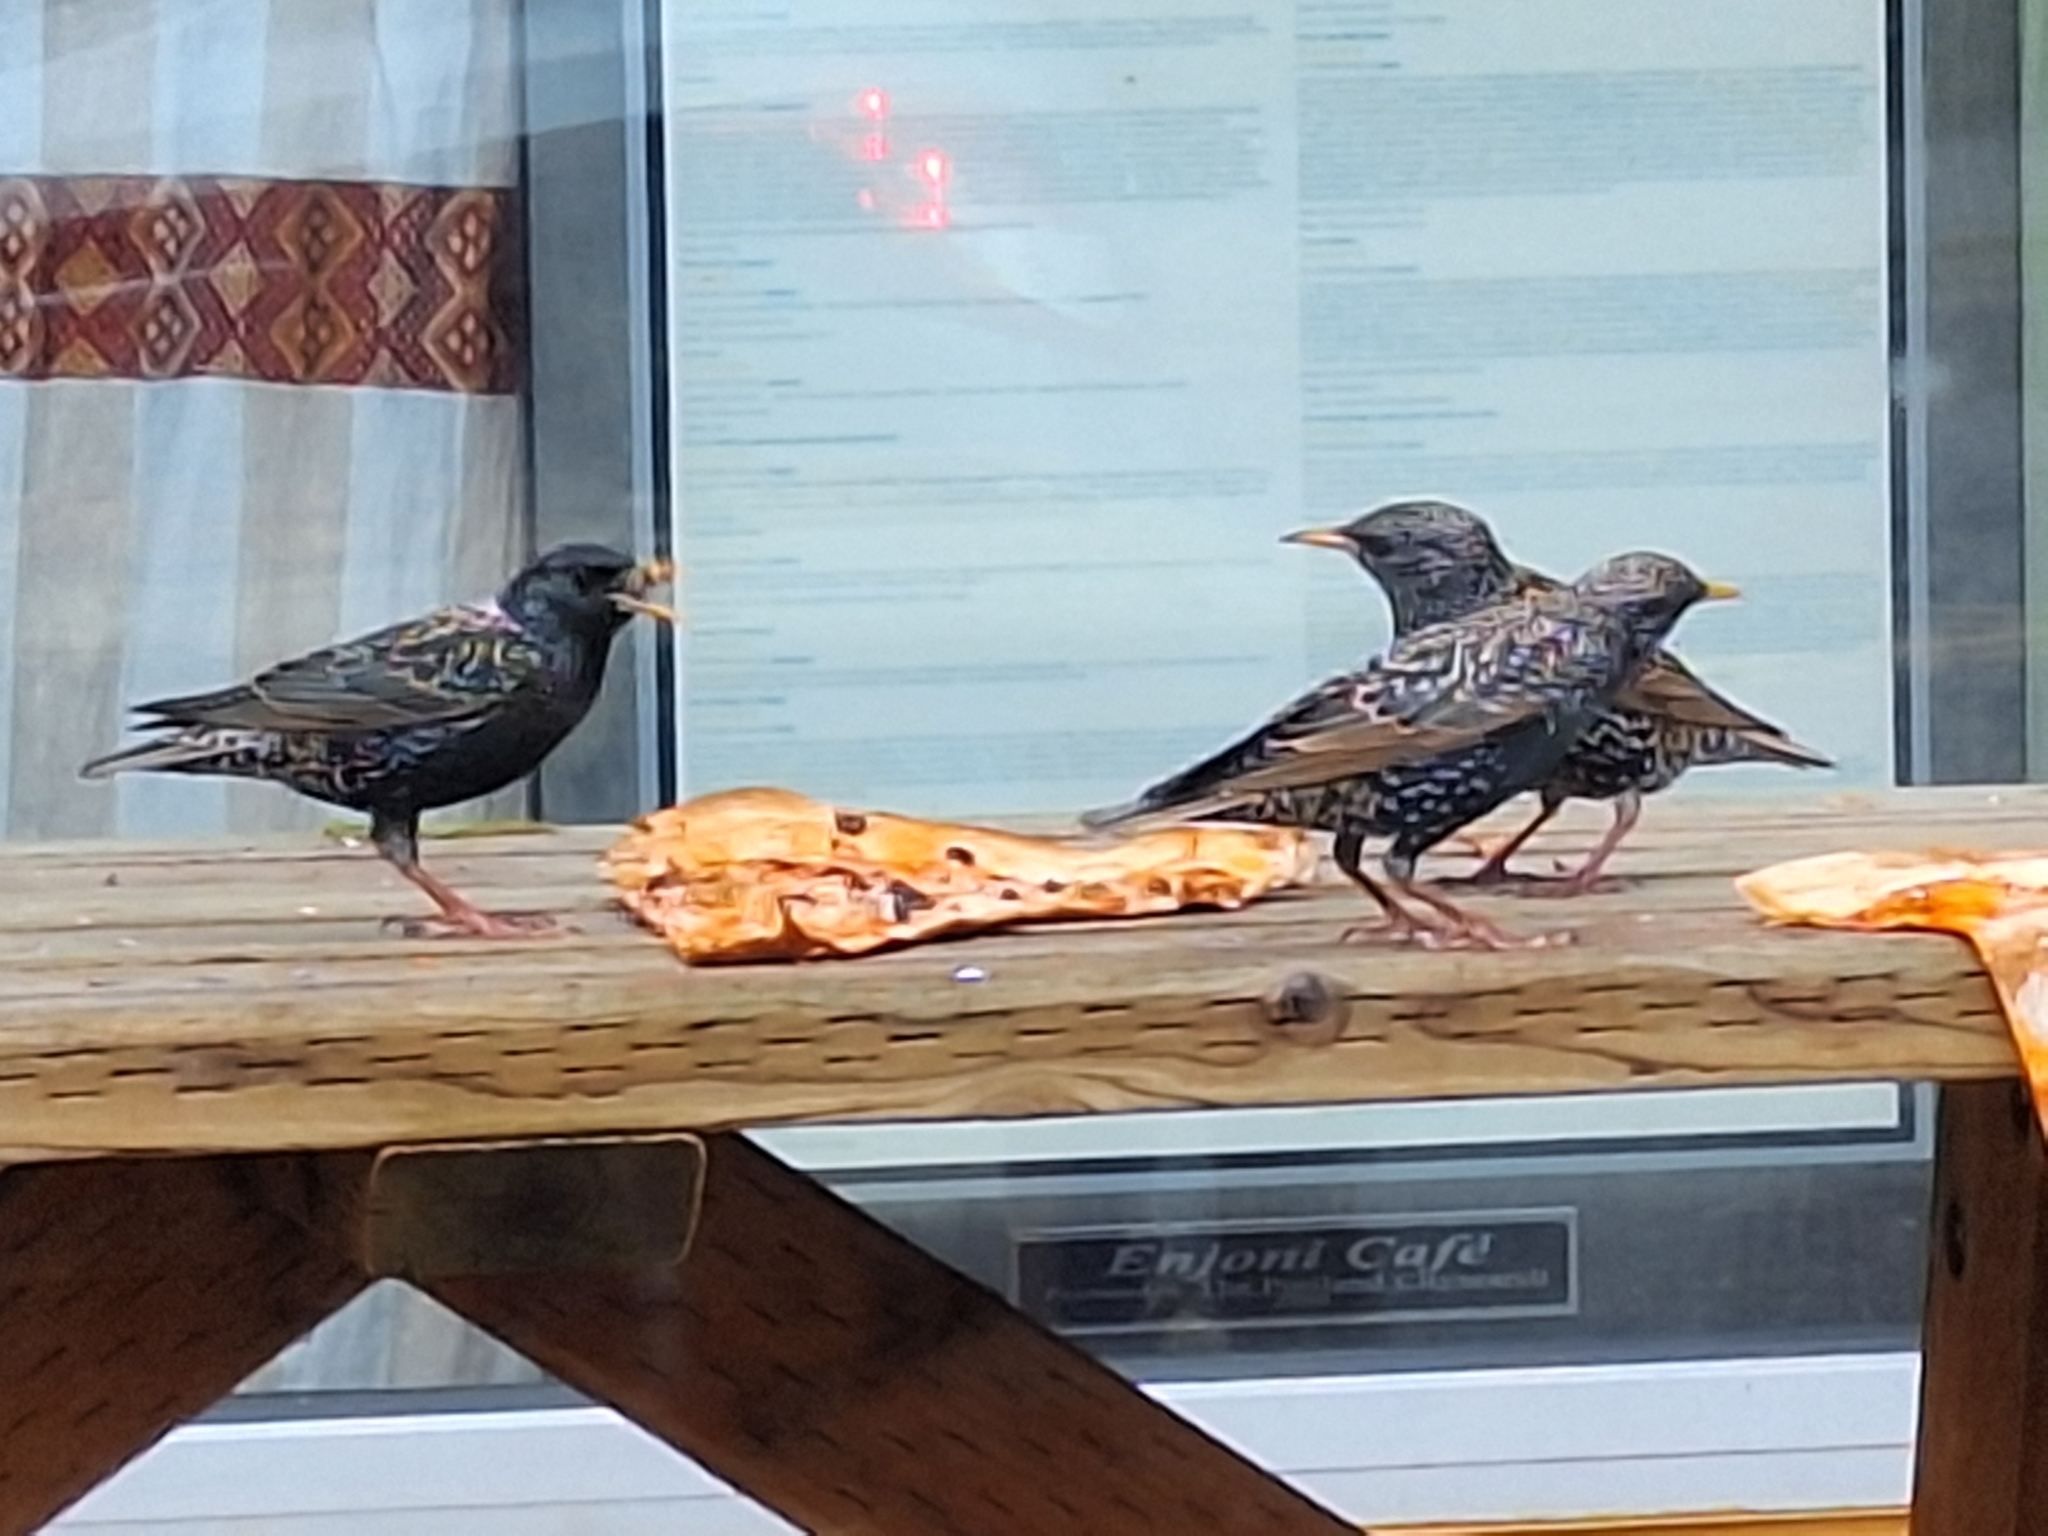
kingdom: Animalia
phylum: Chordata
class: Aves
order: Passeriformes
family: Sturnidae
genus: Sturnus
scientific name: Sturnus vulgaris
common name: Common starling
